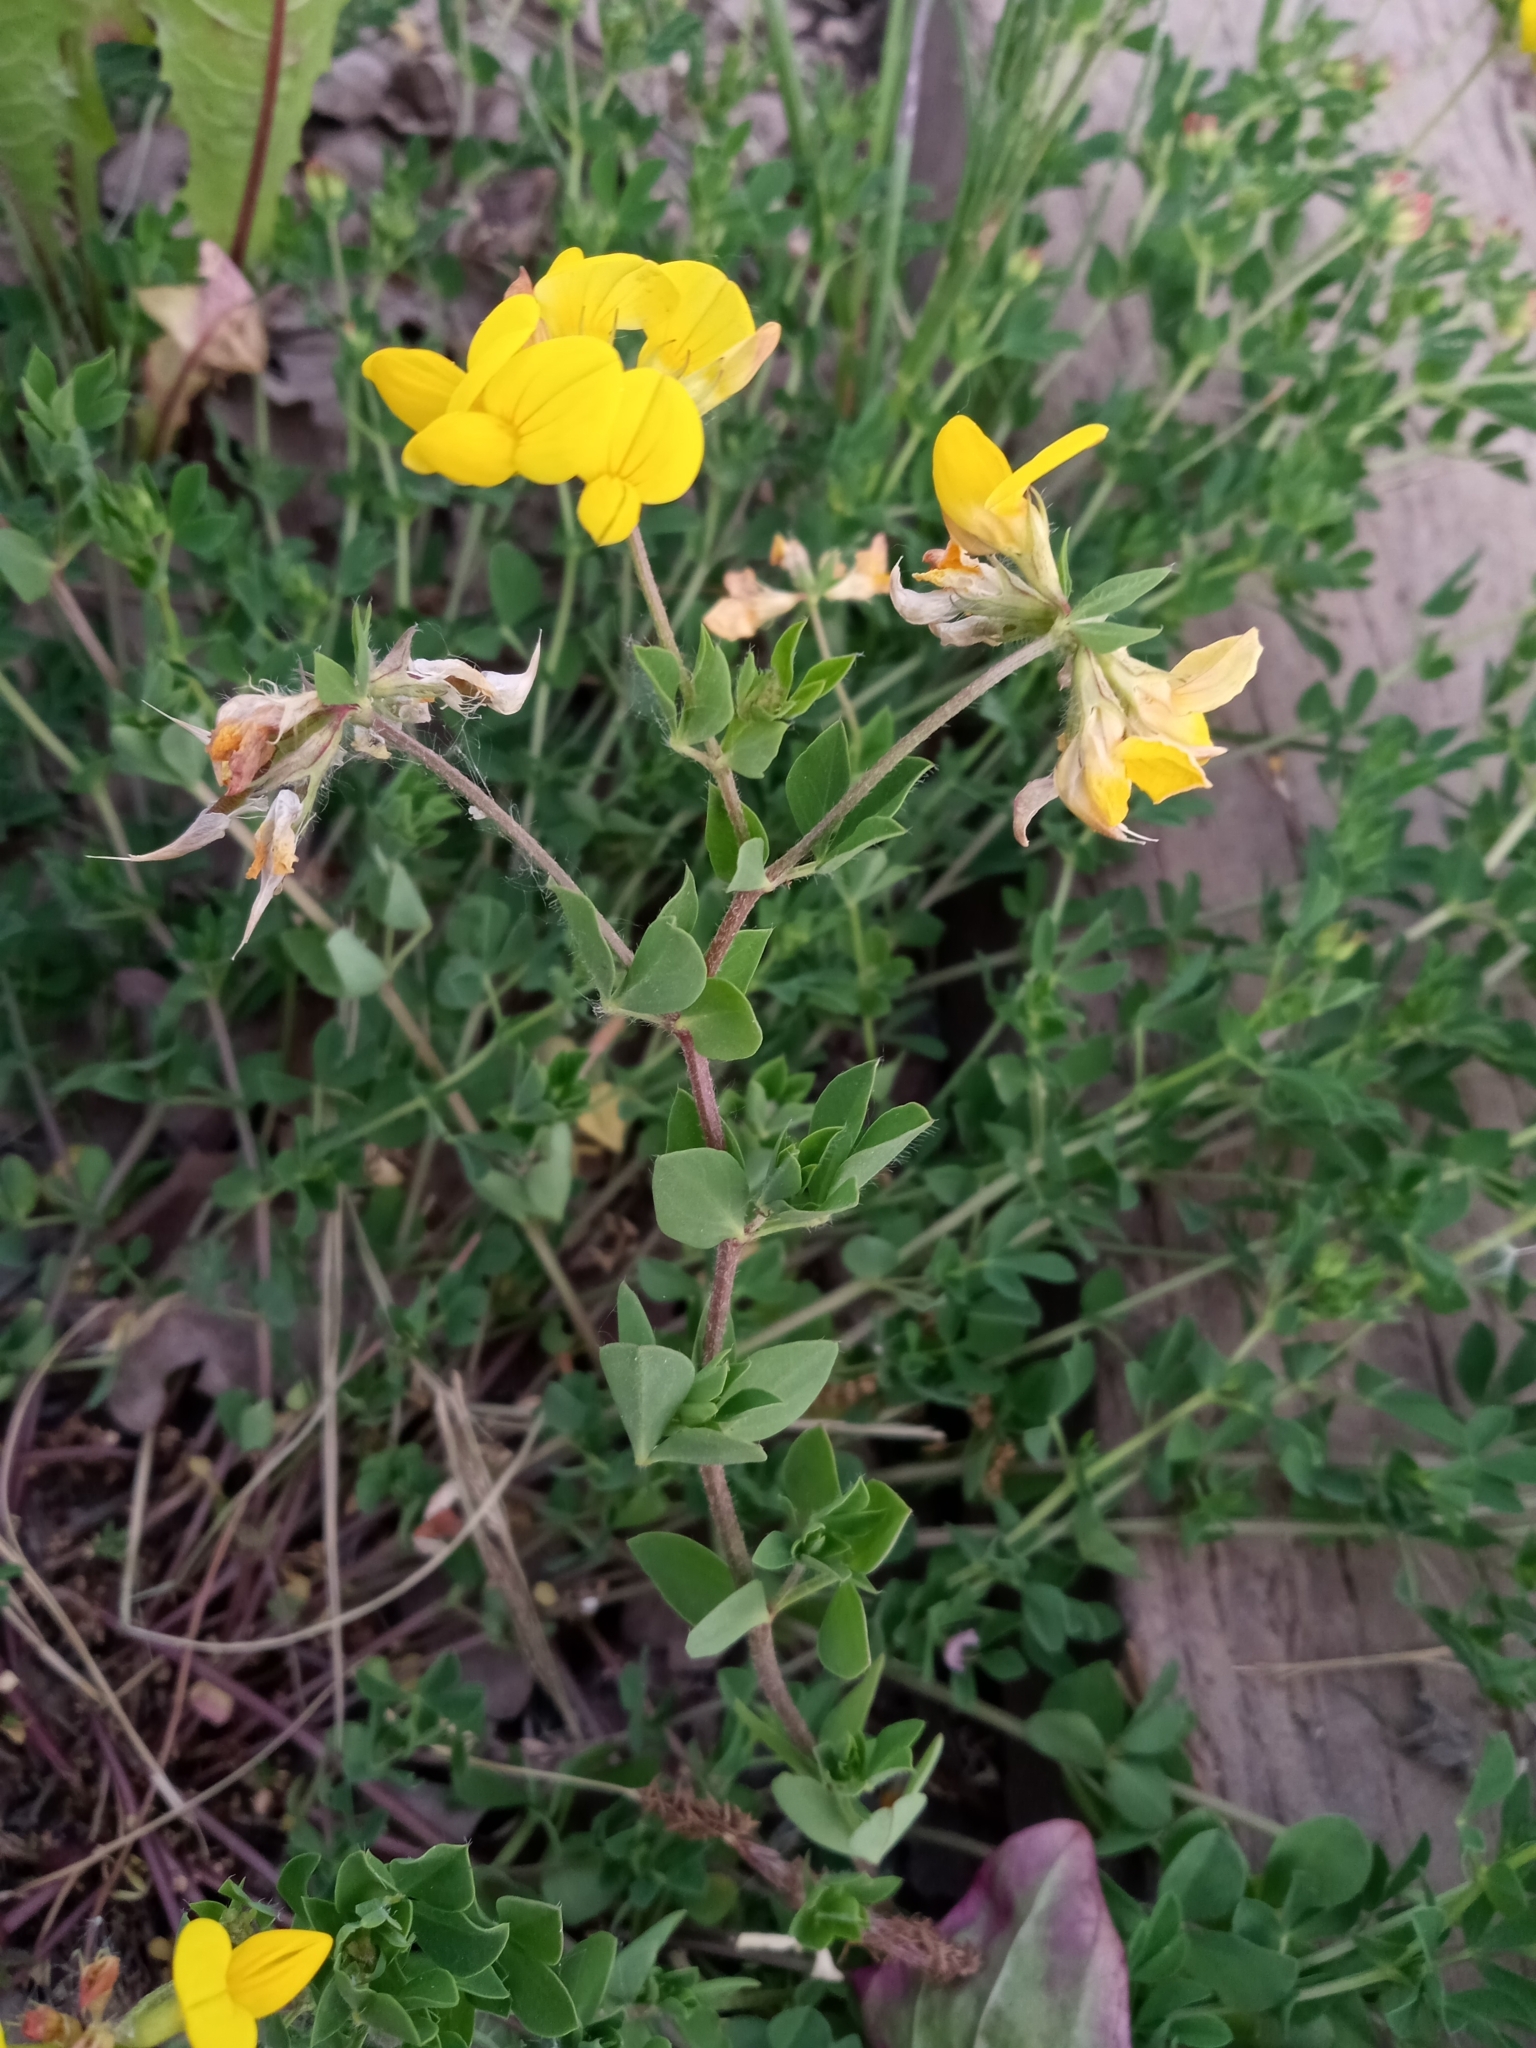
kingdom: Plantae
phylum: Tracheophyta
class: Magnoliopsida
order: Fabales
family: Fabaceae
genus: Lotus
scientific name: Lotus corniculatus
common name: Common bird's-foot-trefoil
